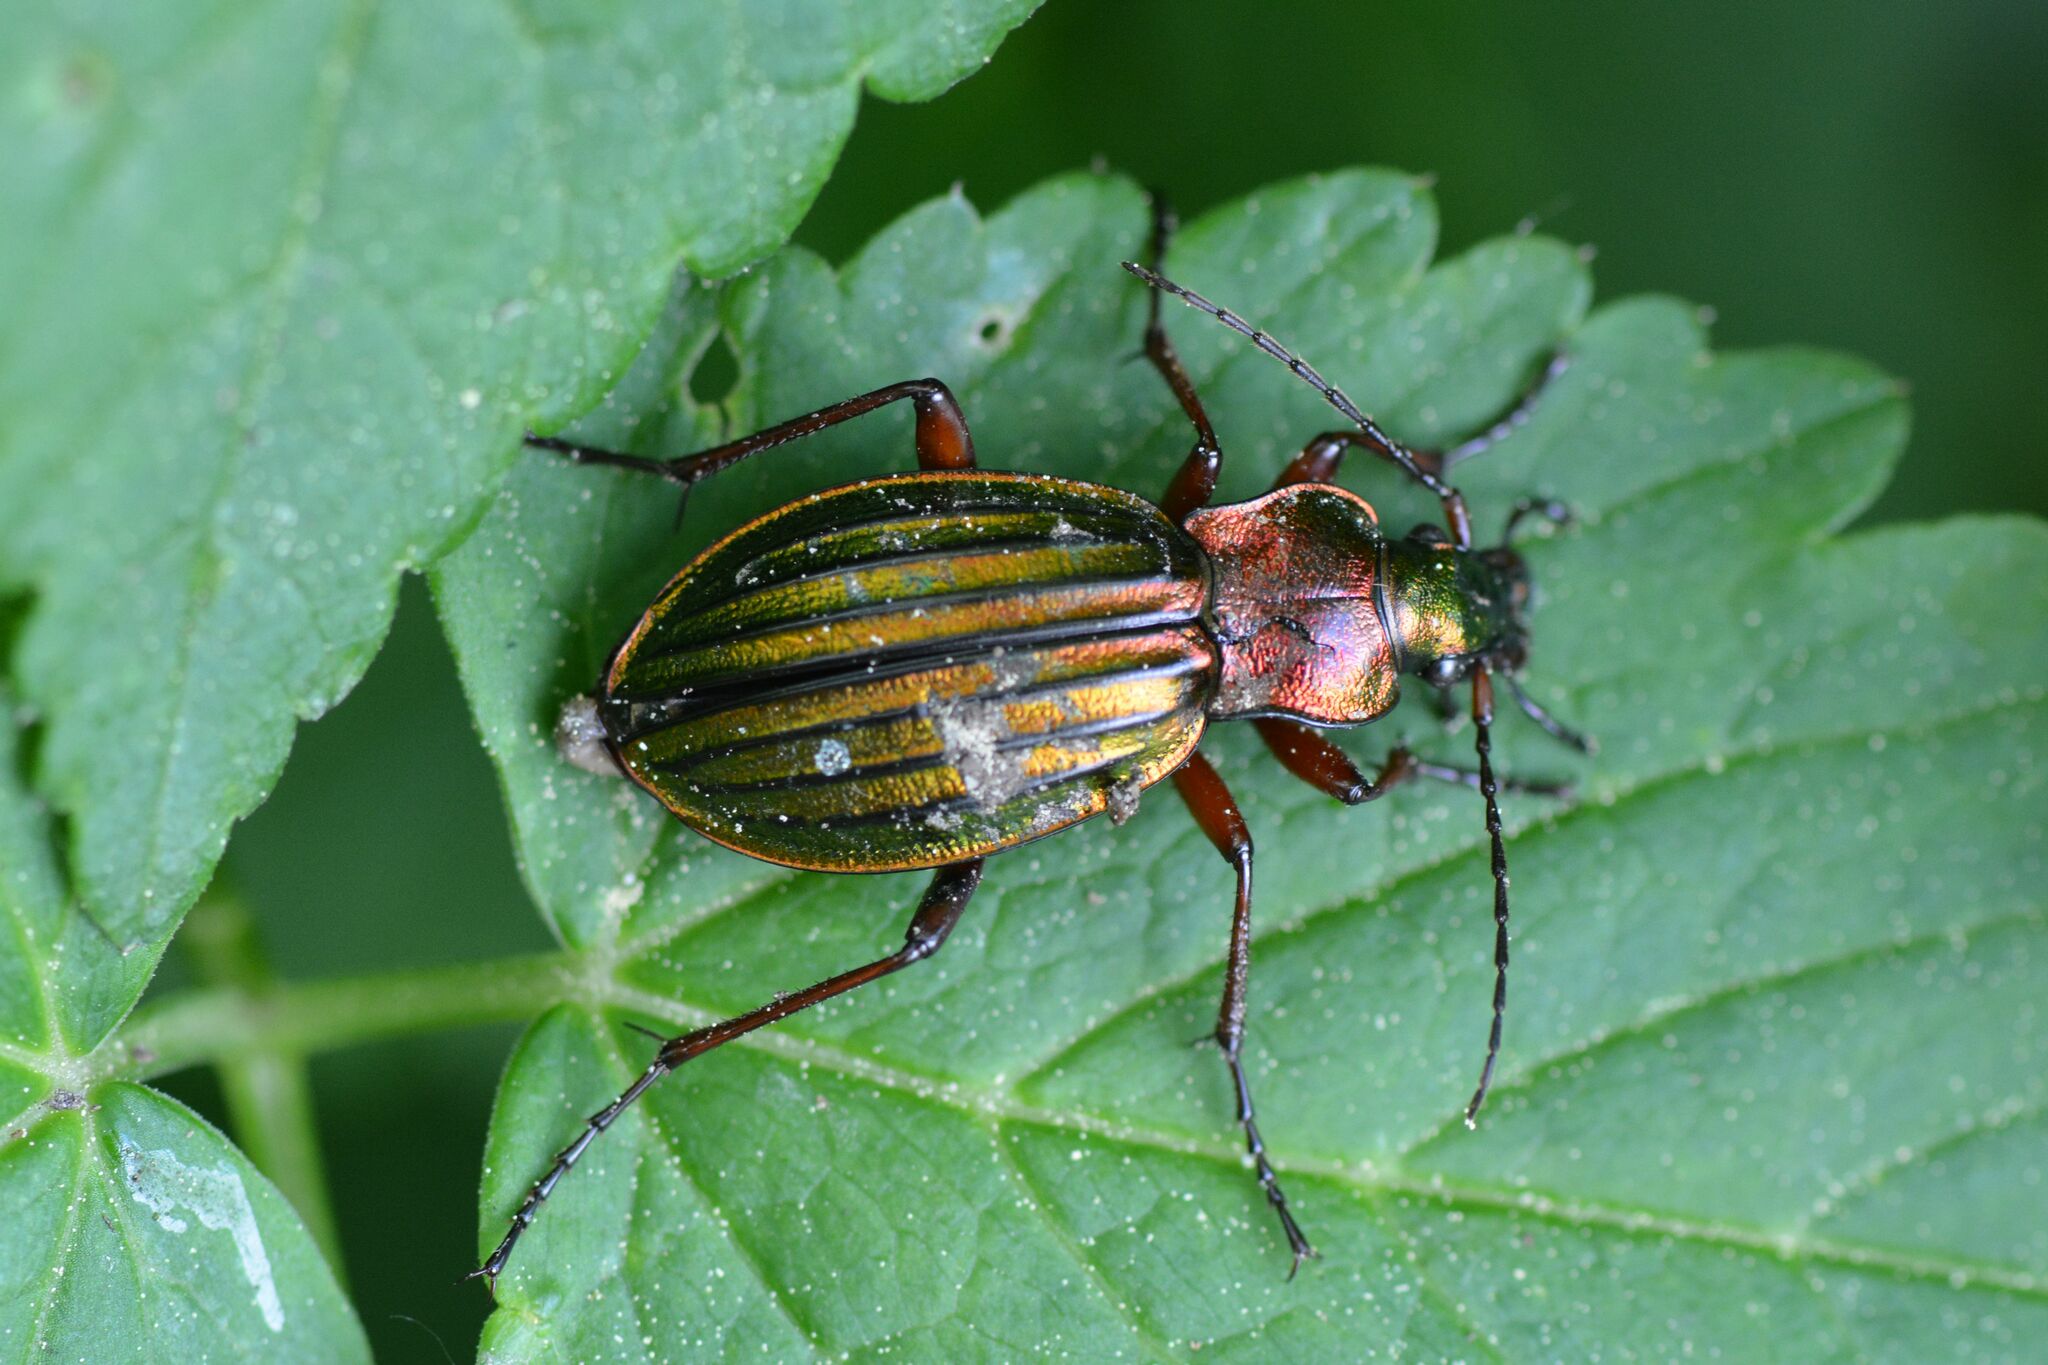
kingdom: Animalia
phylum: Arthropoda
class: Insecta
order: Coleoptera
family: Carabidae
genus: Carabus
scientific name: Carabus auronitens
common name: Carabus auronitens
